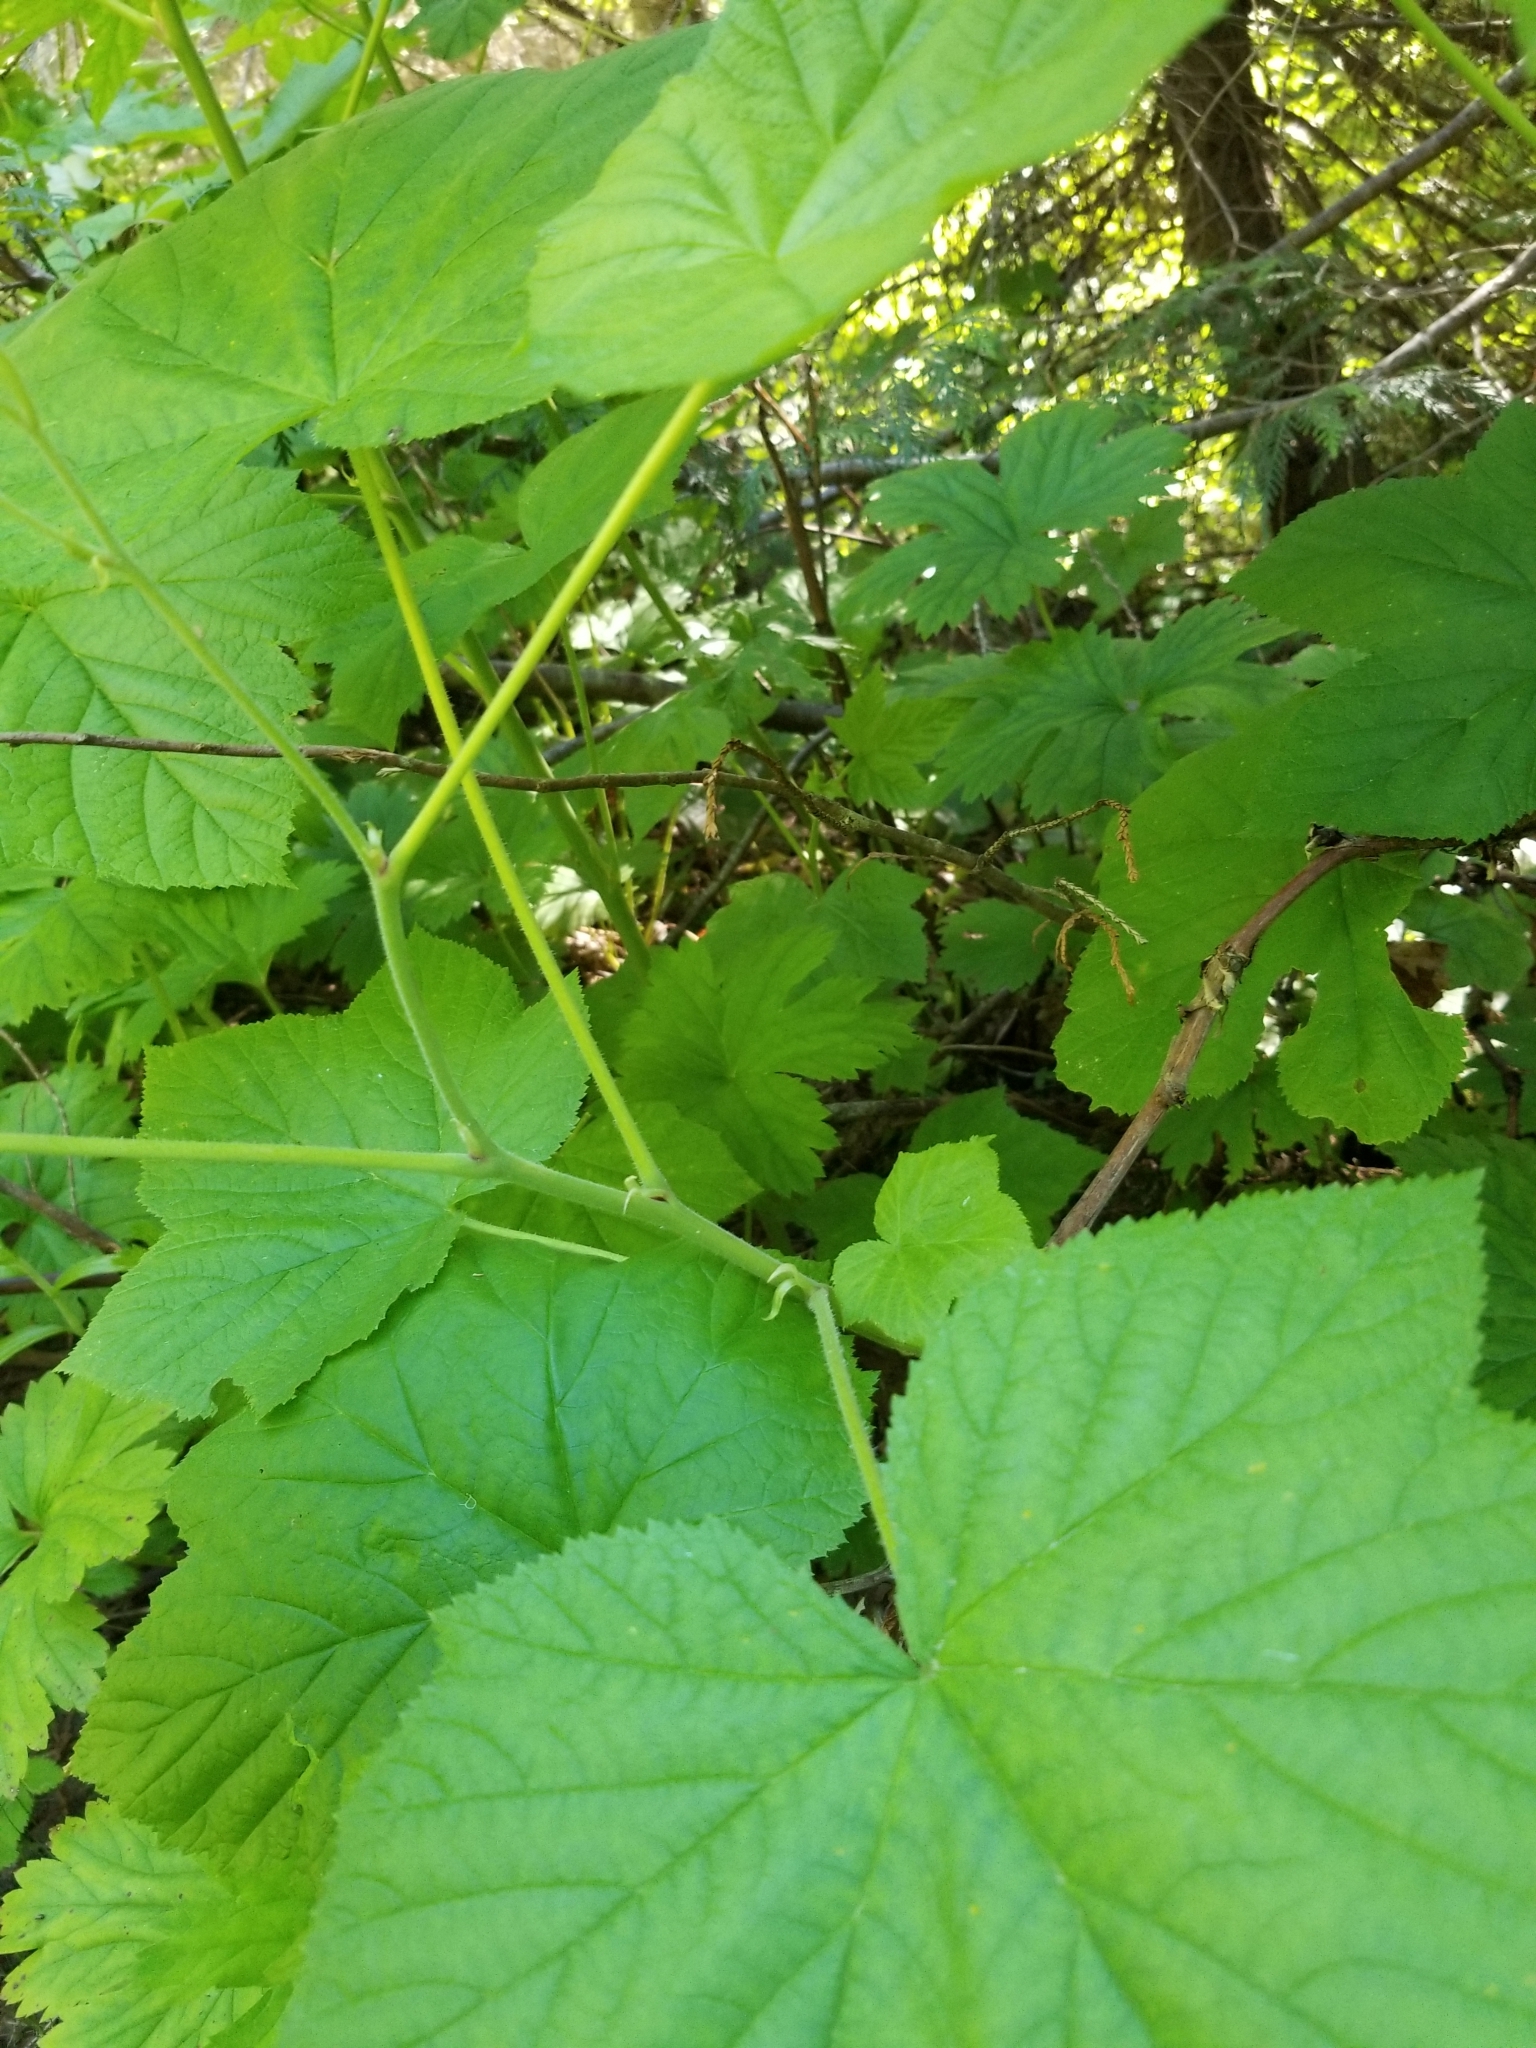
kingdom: Plantae
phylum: Tracheophyta
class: Magnoliopsida
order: Rosales
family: Rosaceae
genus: Rubus
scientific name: Rubus parviflorus
